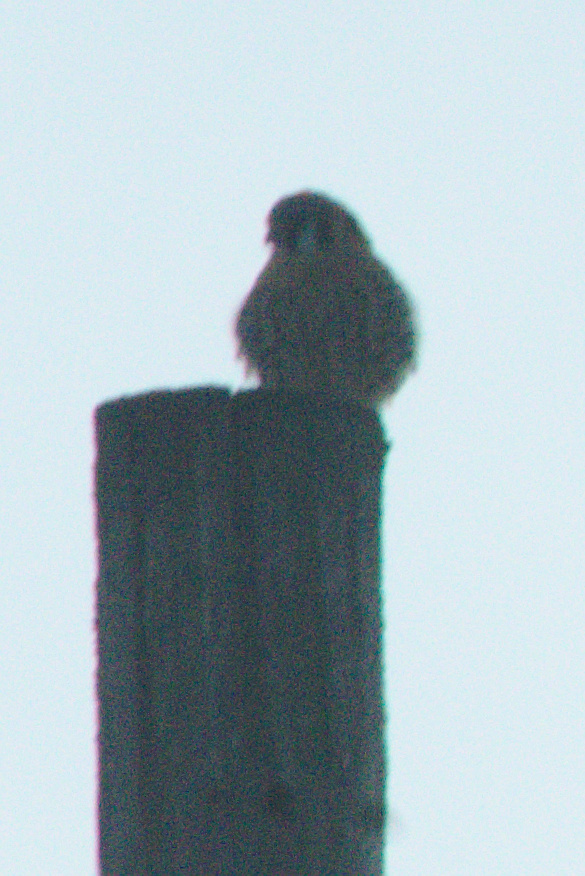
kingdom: Animalia
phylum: Chordata
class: Aves
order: Falconiformes
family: Falconidae
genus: Falco
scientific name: Falco sparverius
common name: American kestrel
